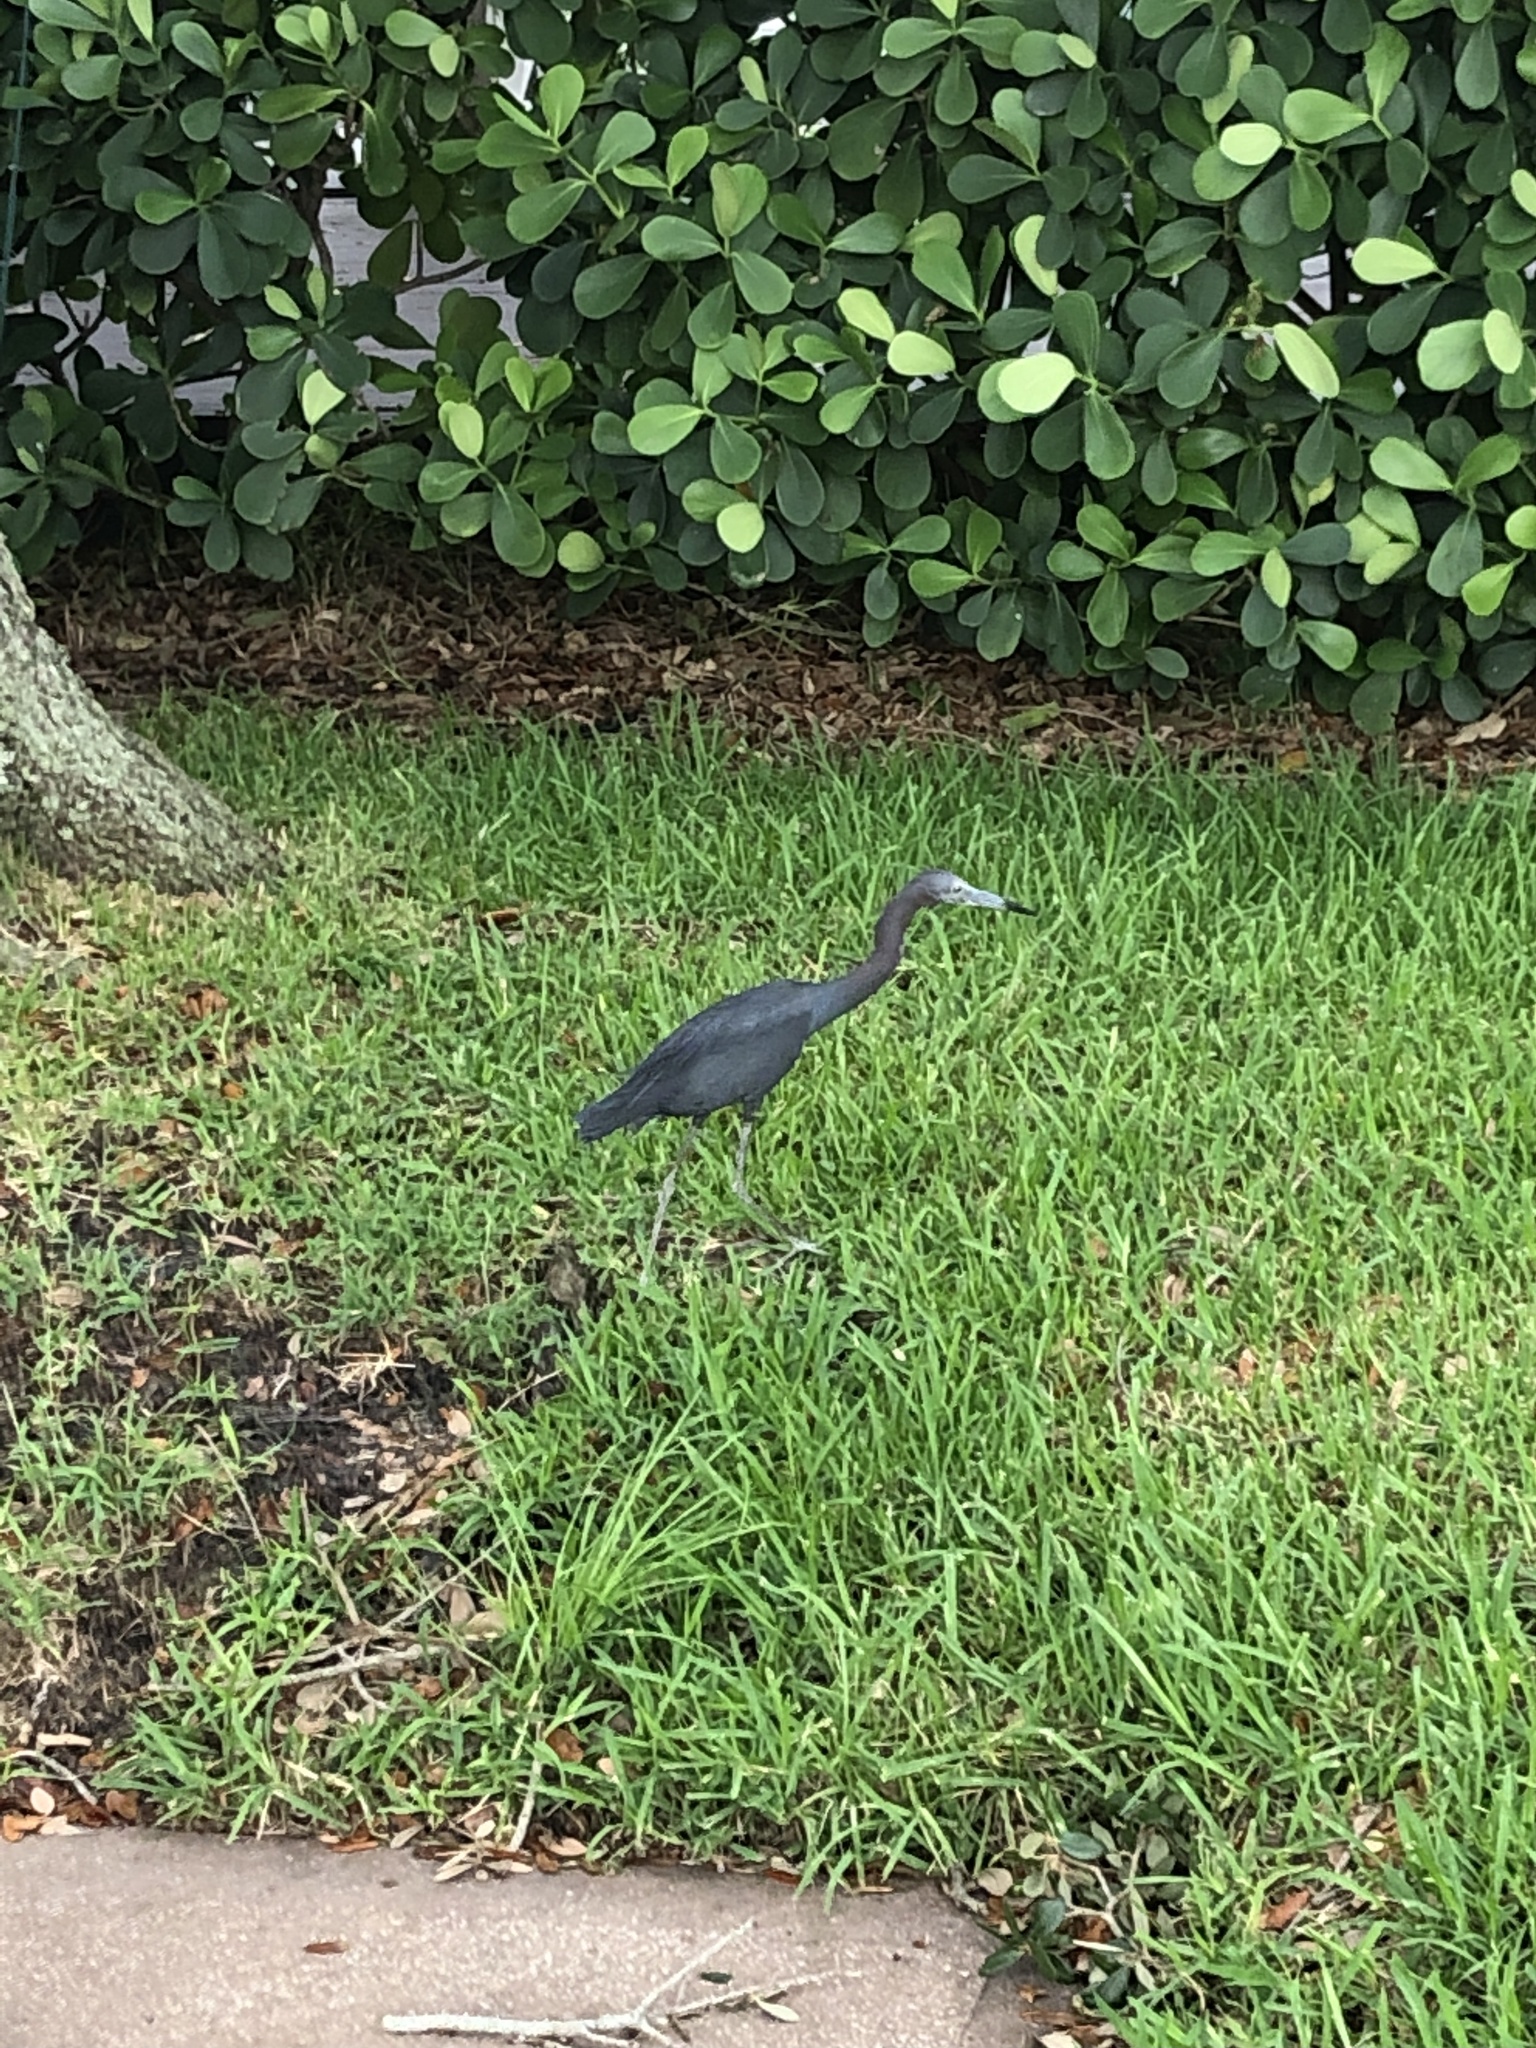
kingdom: Animalia
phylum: Chordata
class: Aves
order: Pelecaniformes
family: Ardeidae
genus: Egretta
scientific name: Egretta caerulea
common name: Little blue heron
